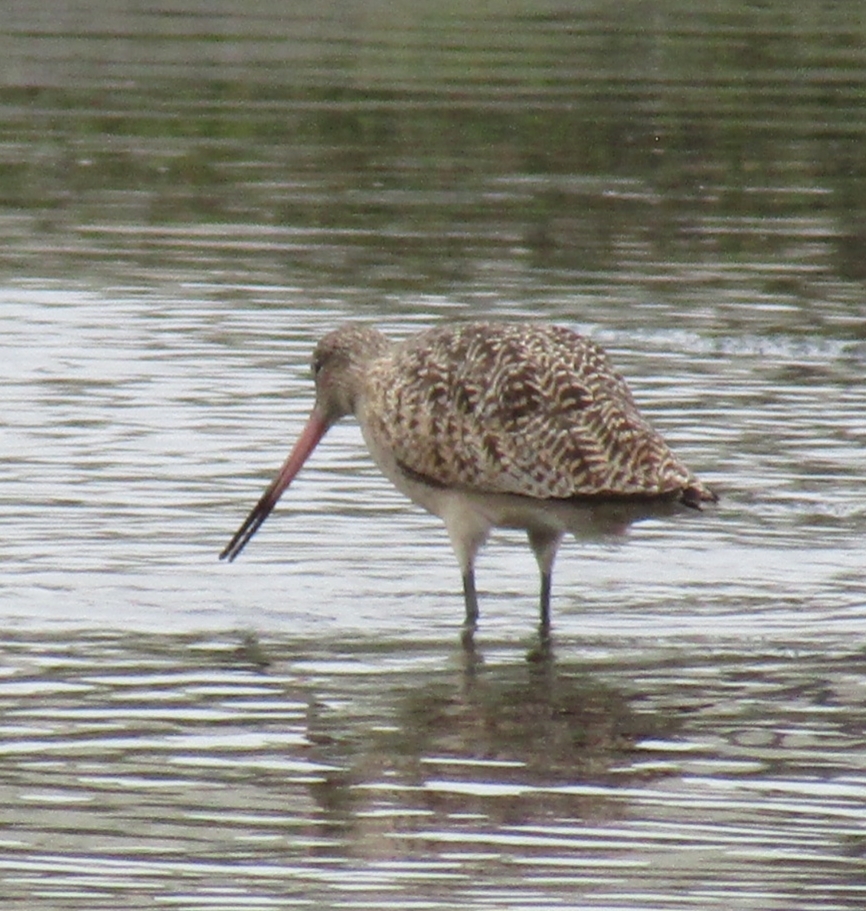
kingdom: Animalia
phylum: Chordata
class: Aves
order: Charadriiformes
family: Scolopacidae
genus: Limosa
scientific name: Limosa fedoa
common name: Marbled godwit
